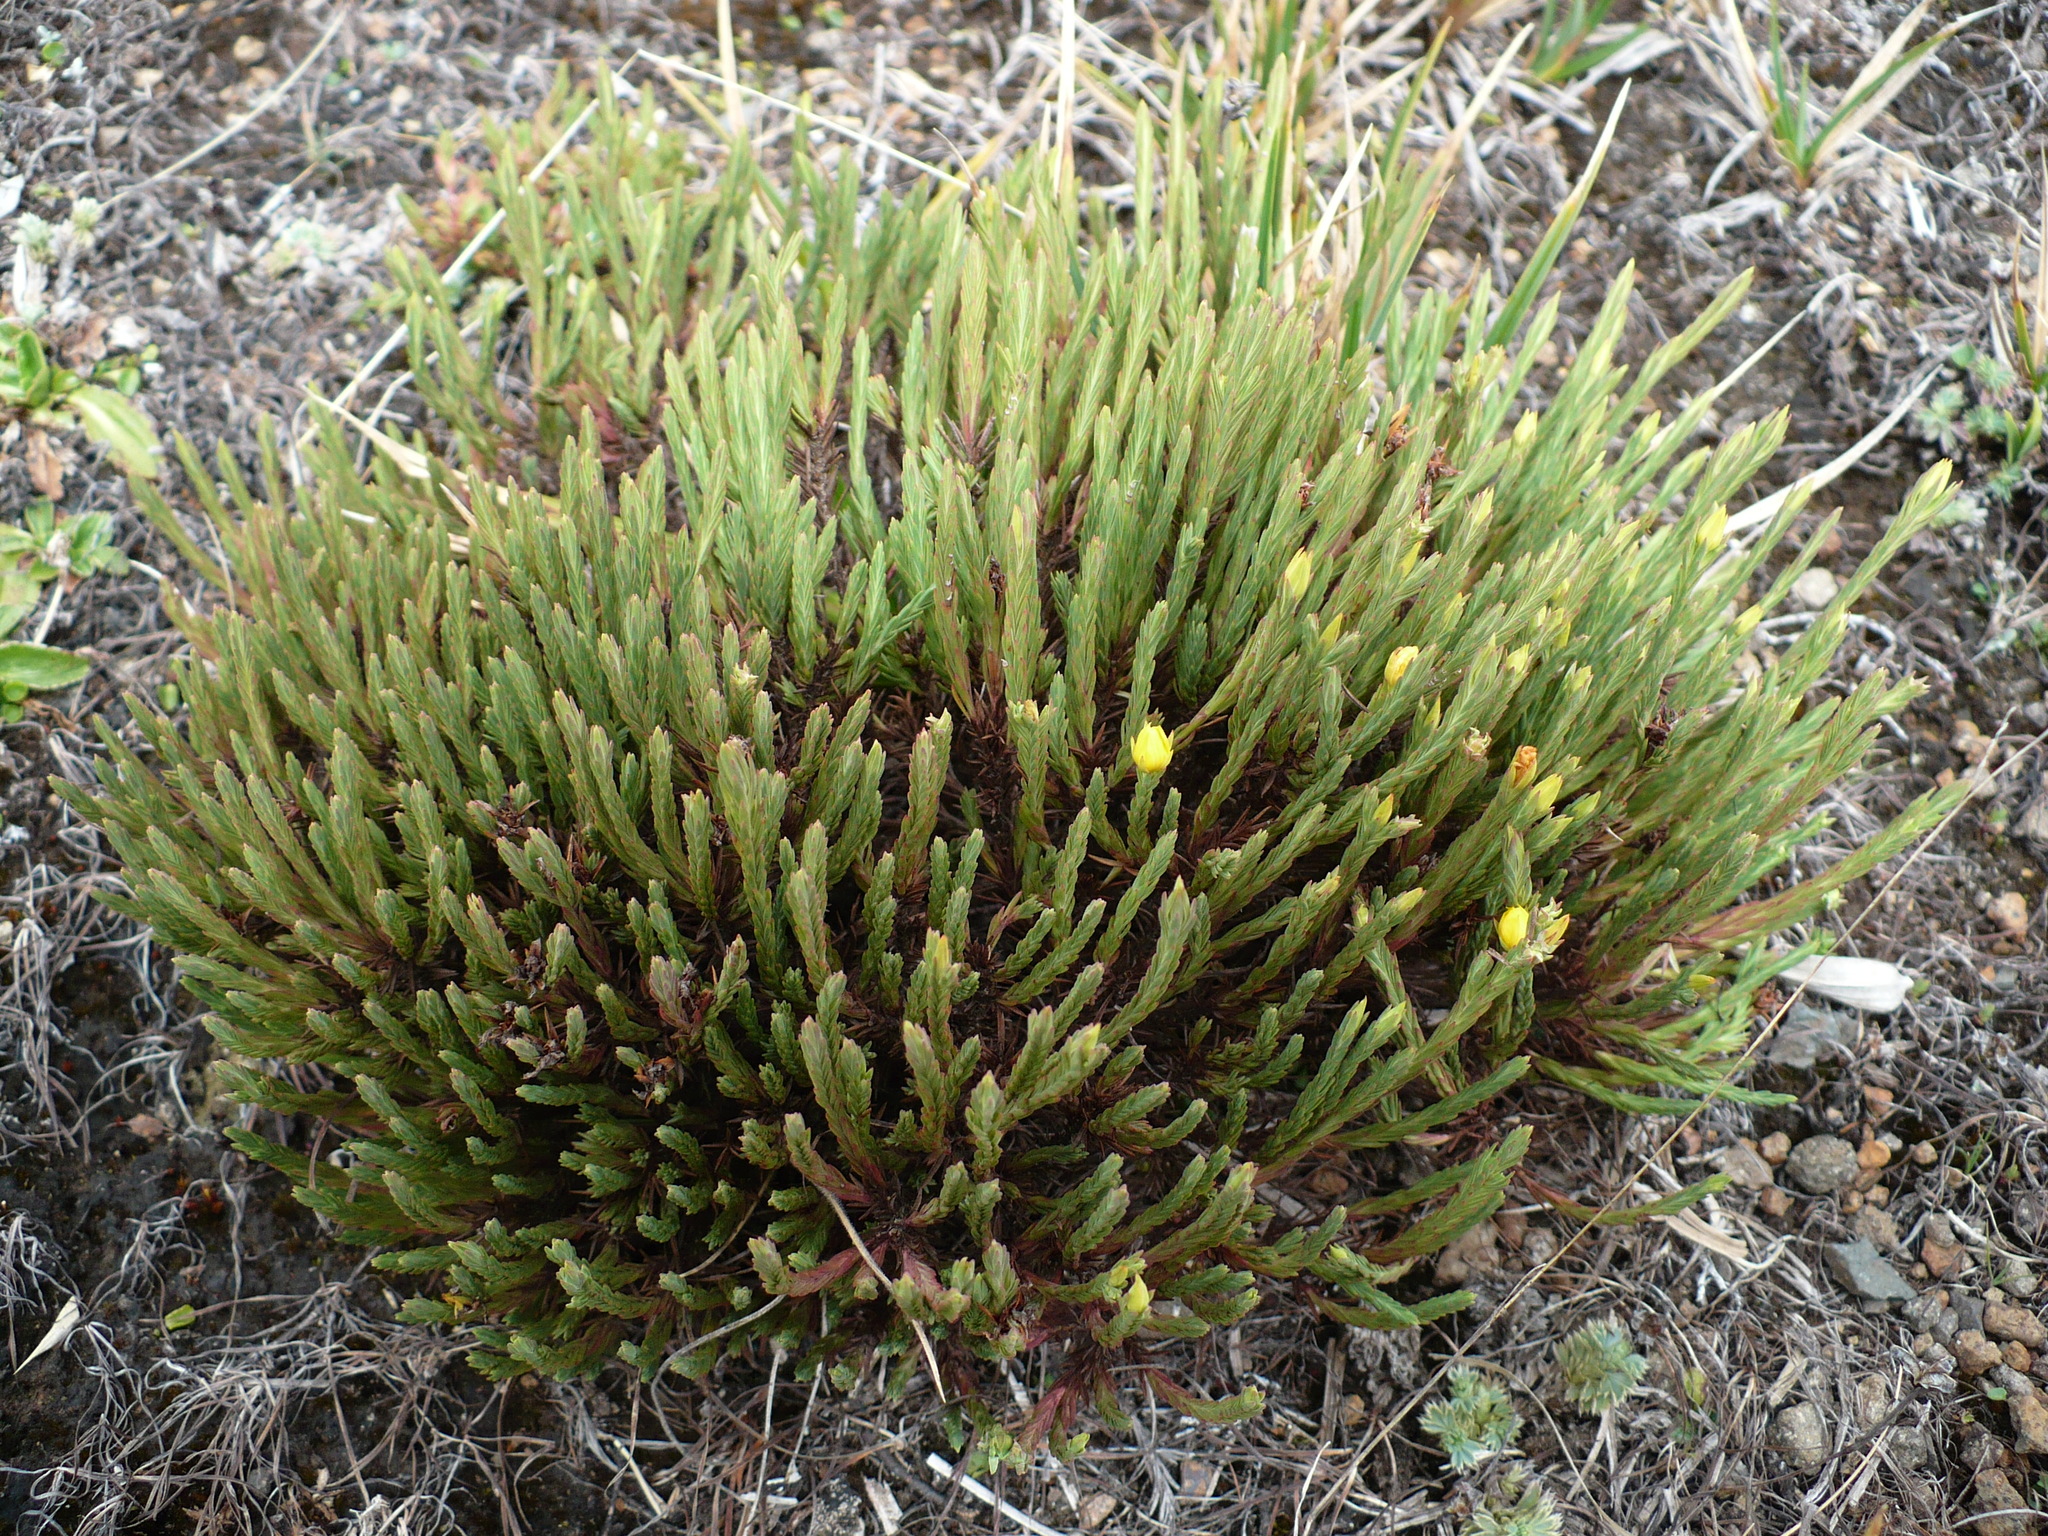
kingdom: Plantae
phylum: Tracheophyta
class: Magnoliopsida
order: Malpighiales
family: Hypericaceae
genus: Hypericum
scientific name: Hypericum costaricense
